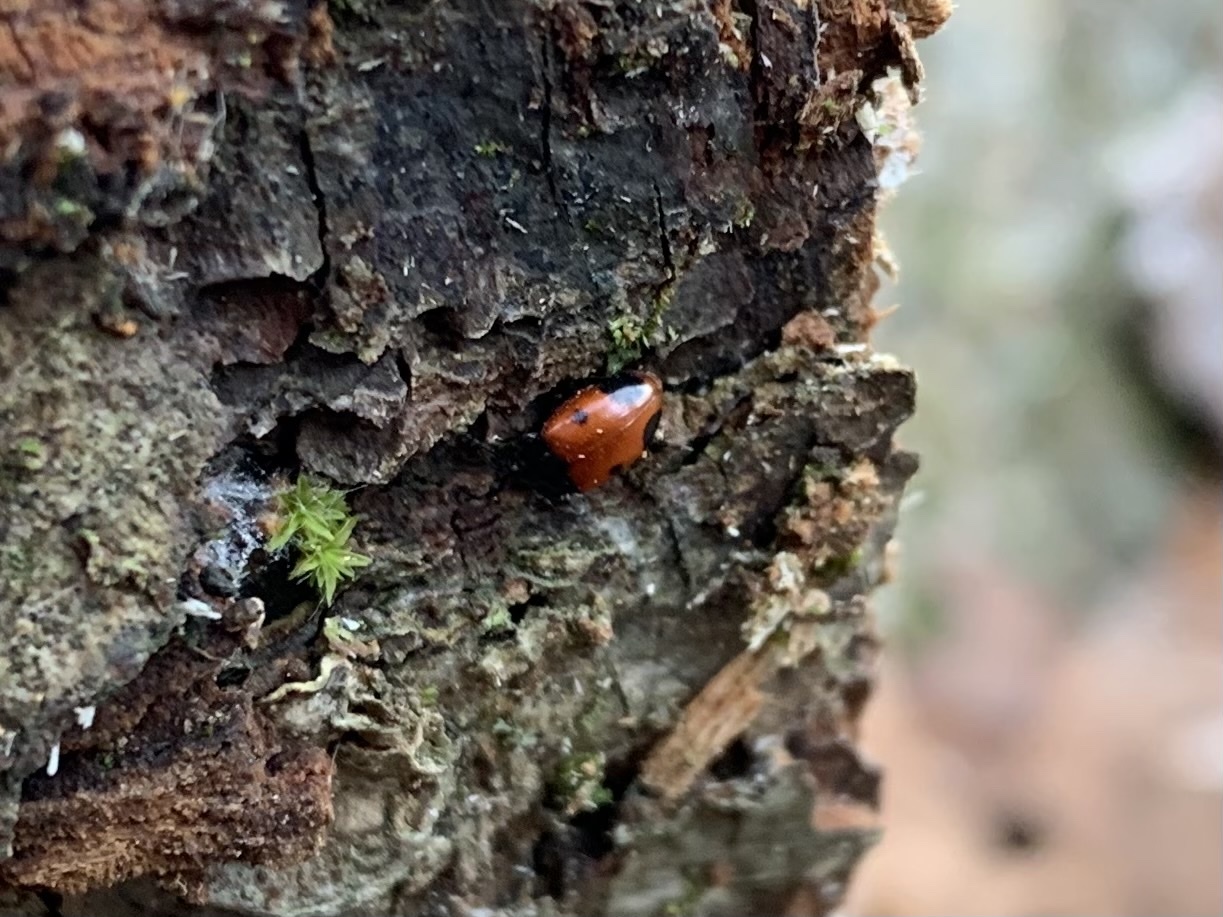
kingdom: Animalia
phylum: Arthropoda
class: Insecta
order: Coleoptera
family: Endomychidae
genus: Endomychus
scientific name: Endomychus biguttatus
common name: Handsome fungus beetle
